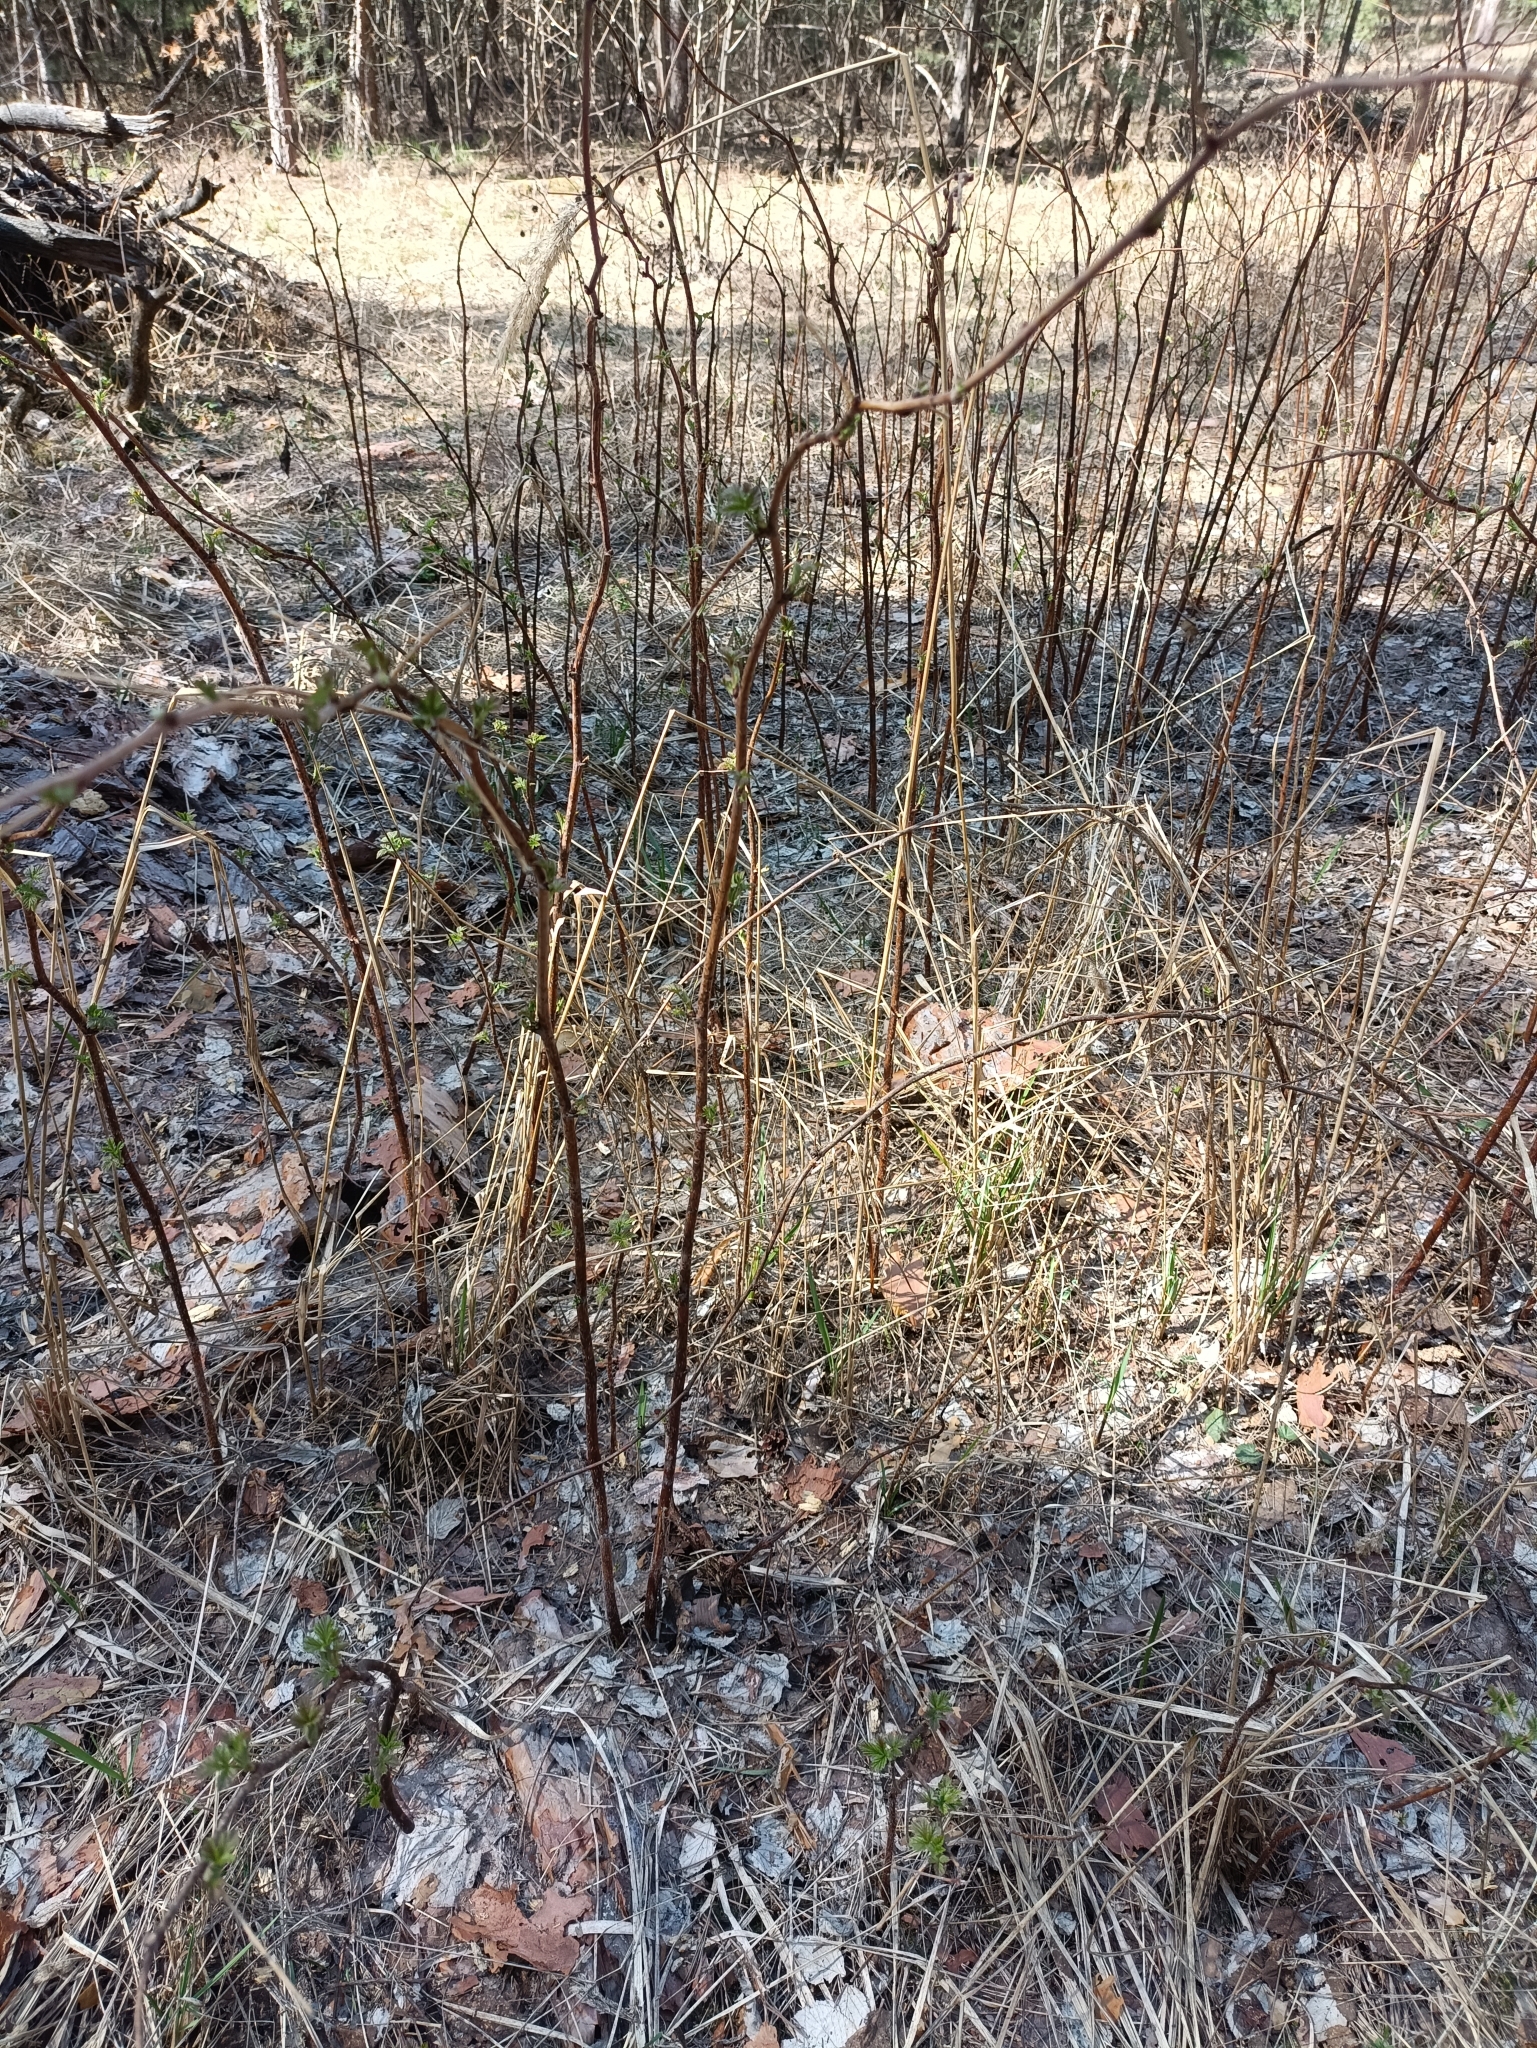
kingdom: Plantae
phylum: Tracheophyta
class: Magnoliopsida
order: Rosales
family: Rosaceae
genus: Rubus
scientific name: Rubus idaeus
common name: Raspberry
